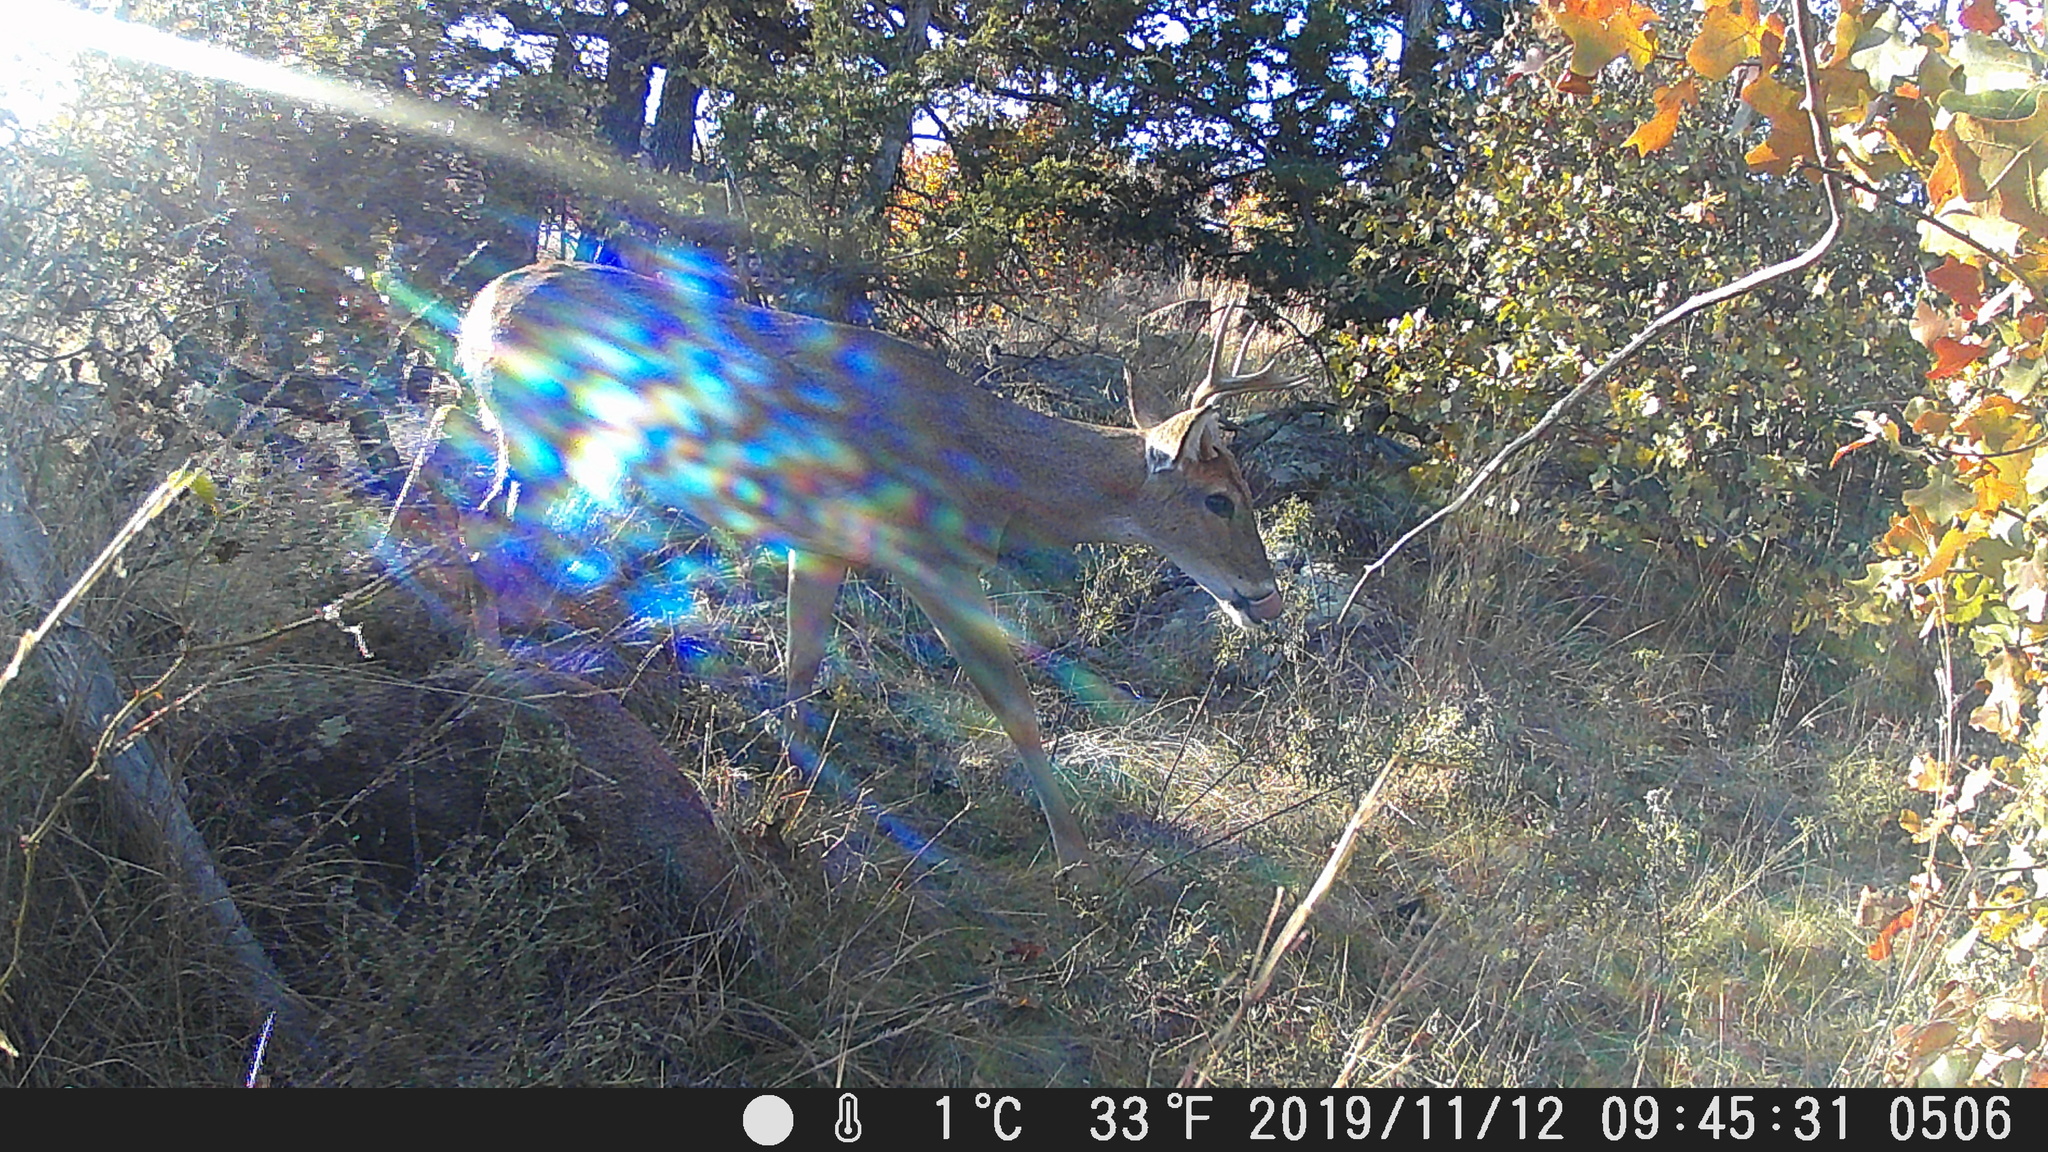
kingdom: Animalia
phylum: Chordata
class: Mammalia
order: Artiodactyla
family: Cervidae
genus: Odocoileus
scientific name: Odocoileus virginianus
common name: White-tailed deer
